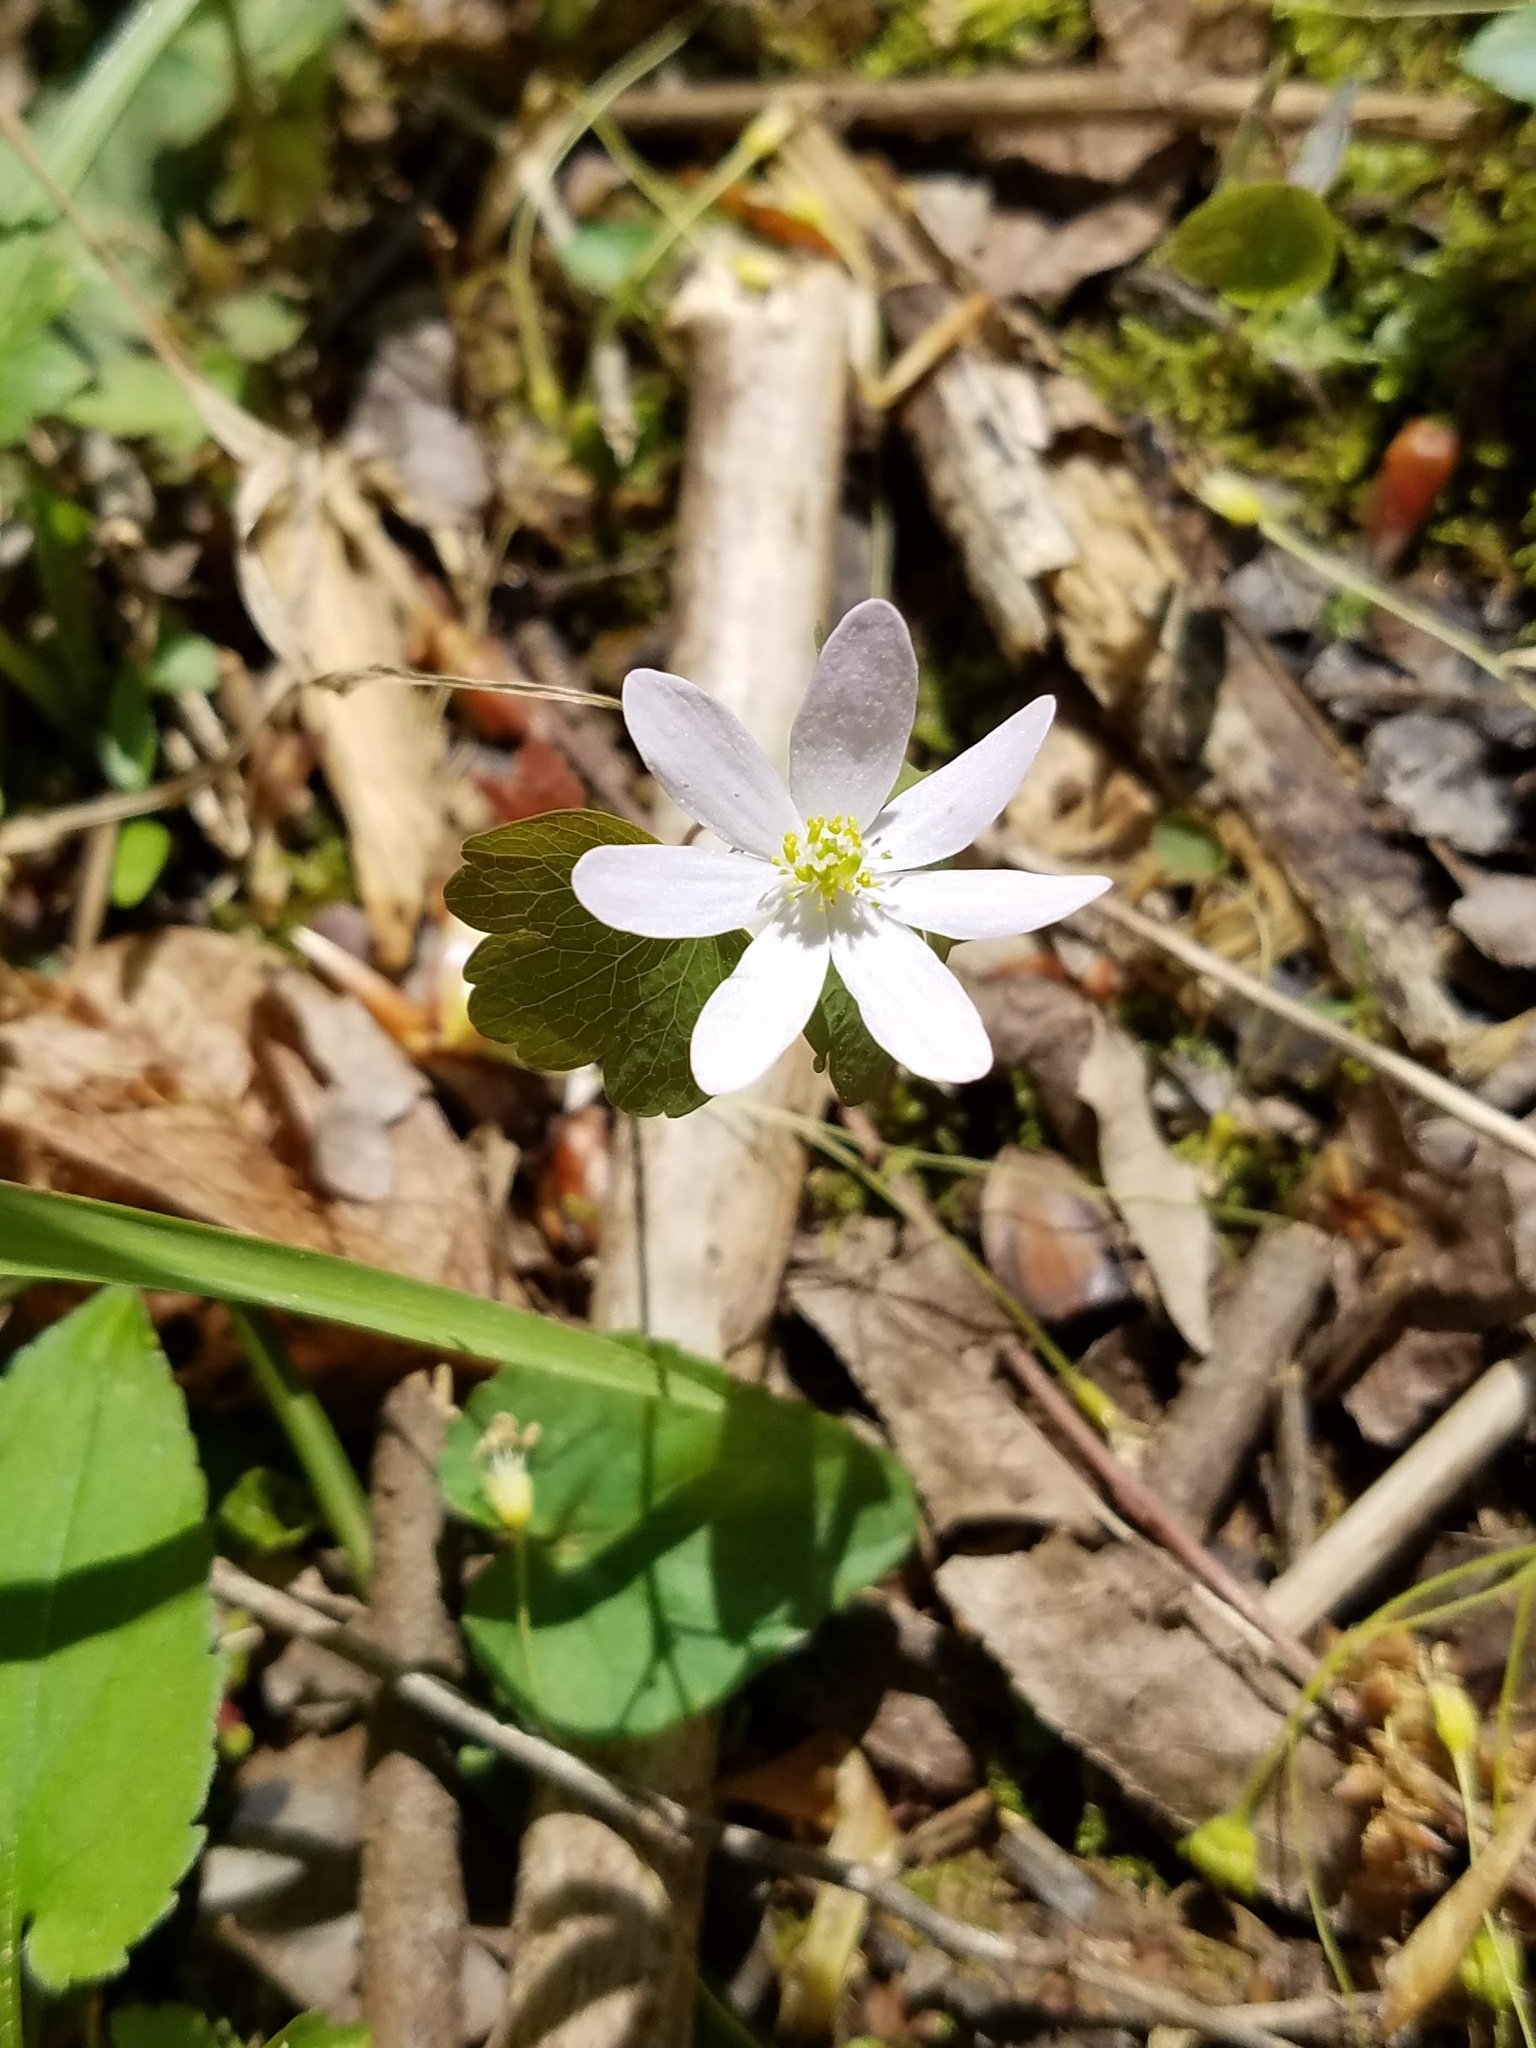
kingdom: Plantae
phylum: Tracheophyta
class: Magnoliopsida
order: Ranunculales
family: Ranunculaceae
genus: Thalictrum
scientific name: Thalictrum thalictroides
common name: Rue-anemone
